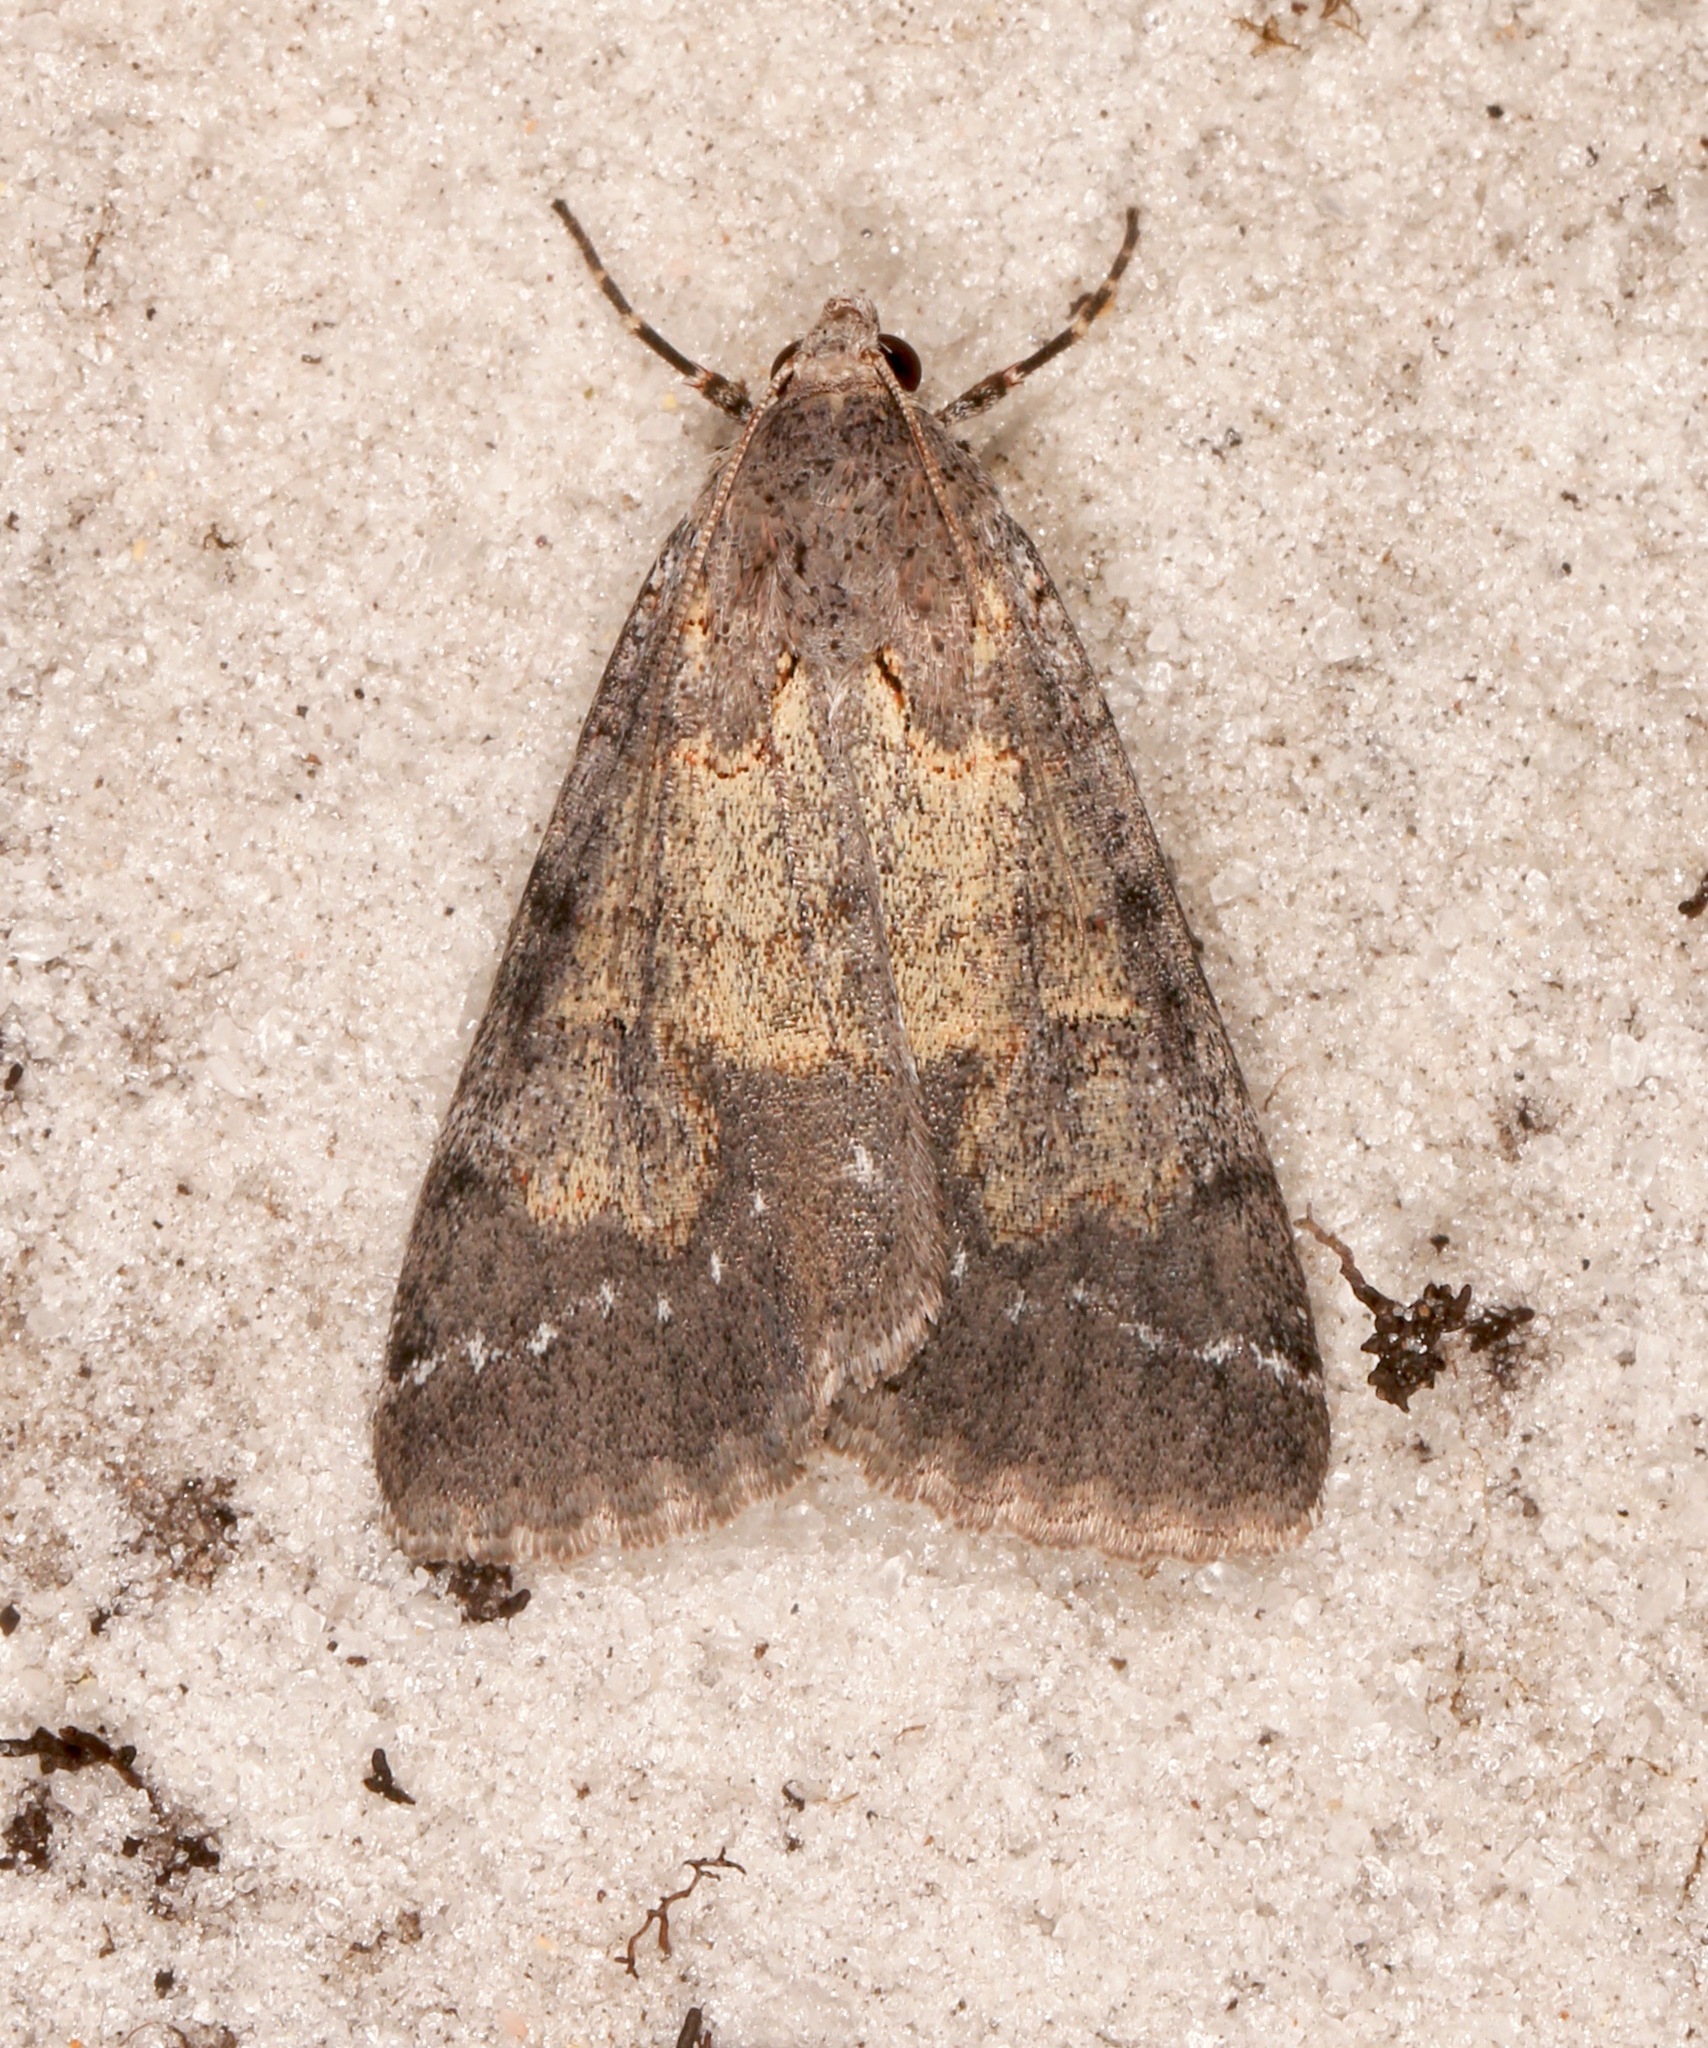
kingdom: Animalia
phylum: Arthropoda
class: Insecta
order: Lepidoptera
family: Erebidae
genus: Drasteria
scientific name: Drasteria graphica
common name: Coastal graphic
